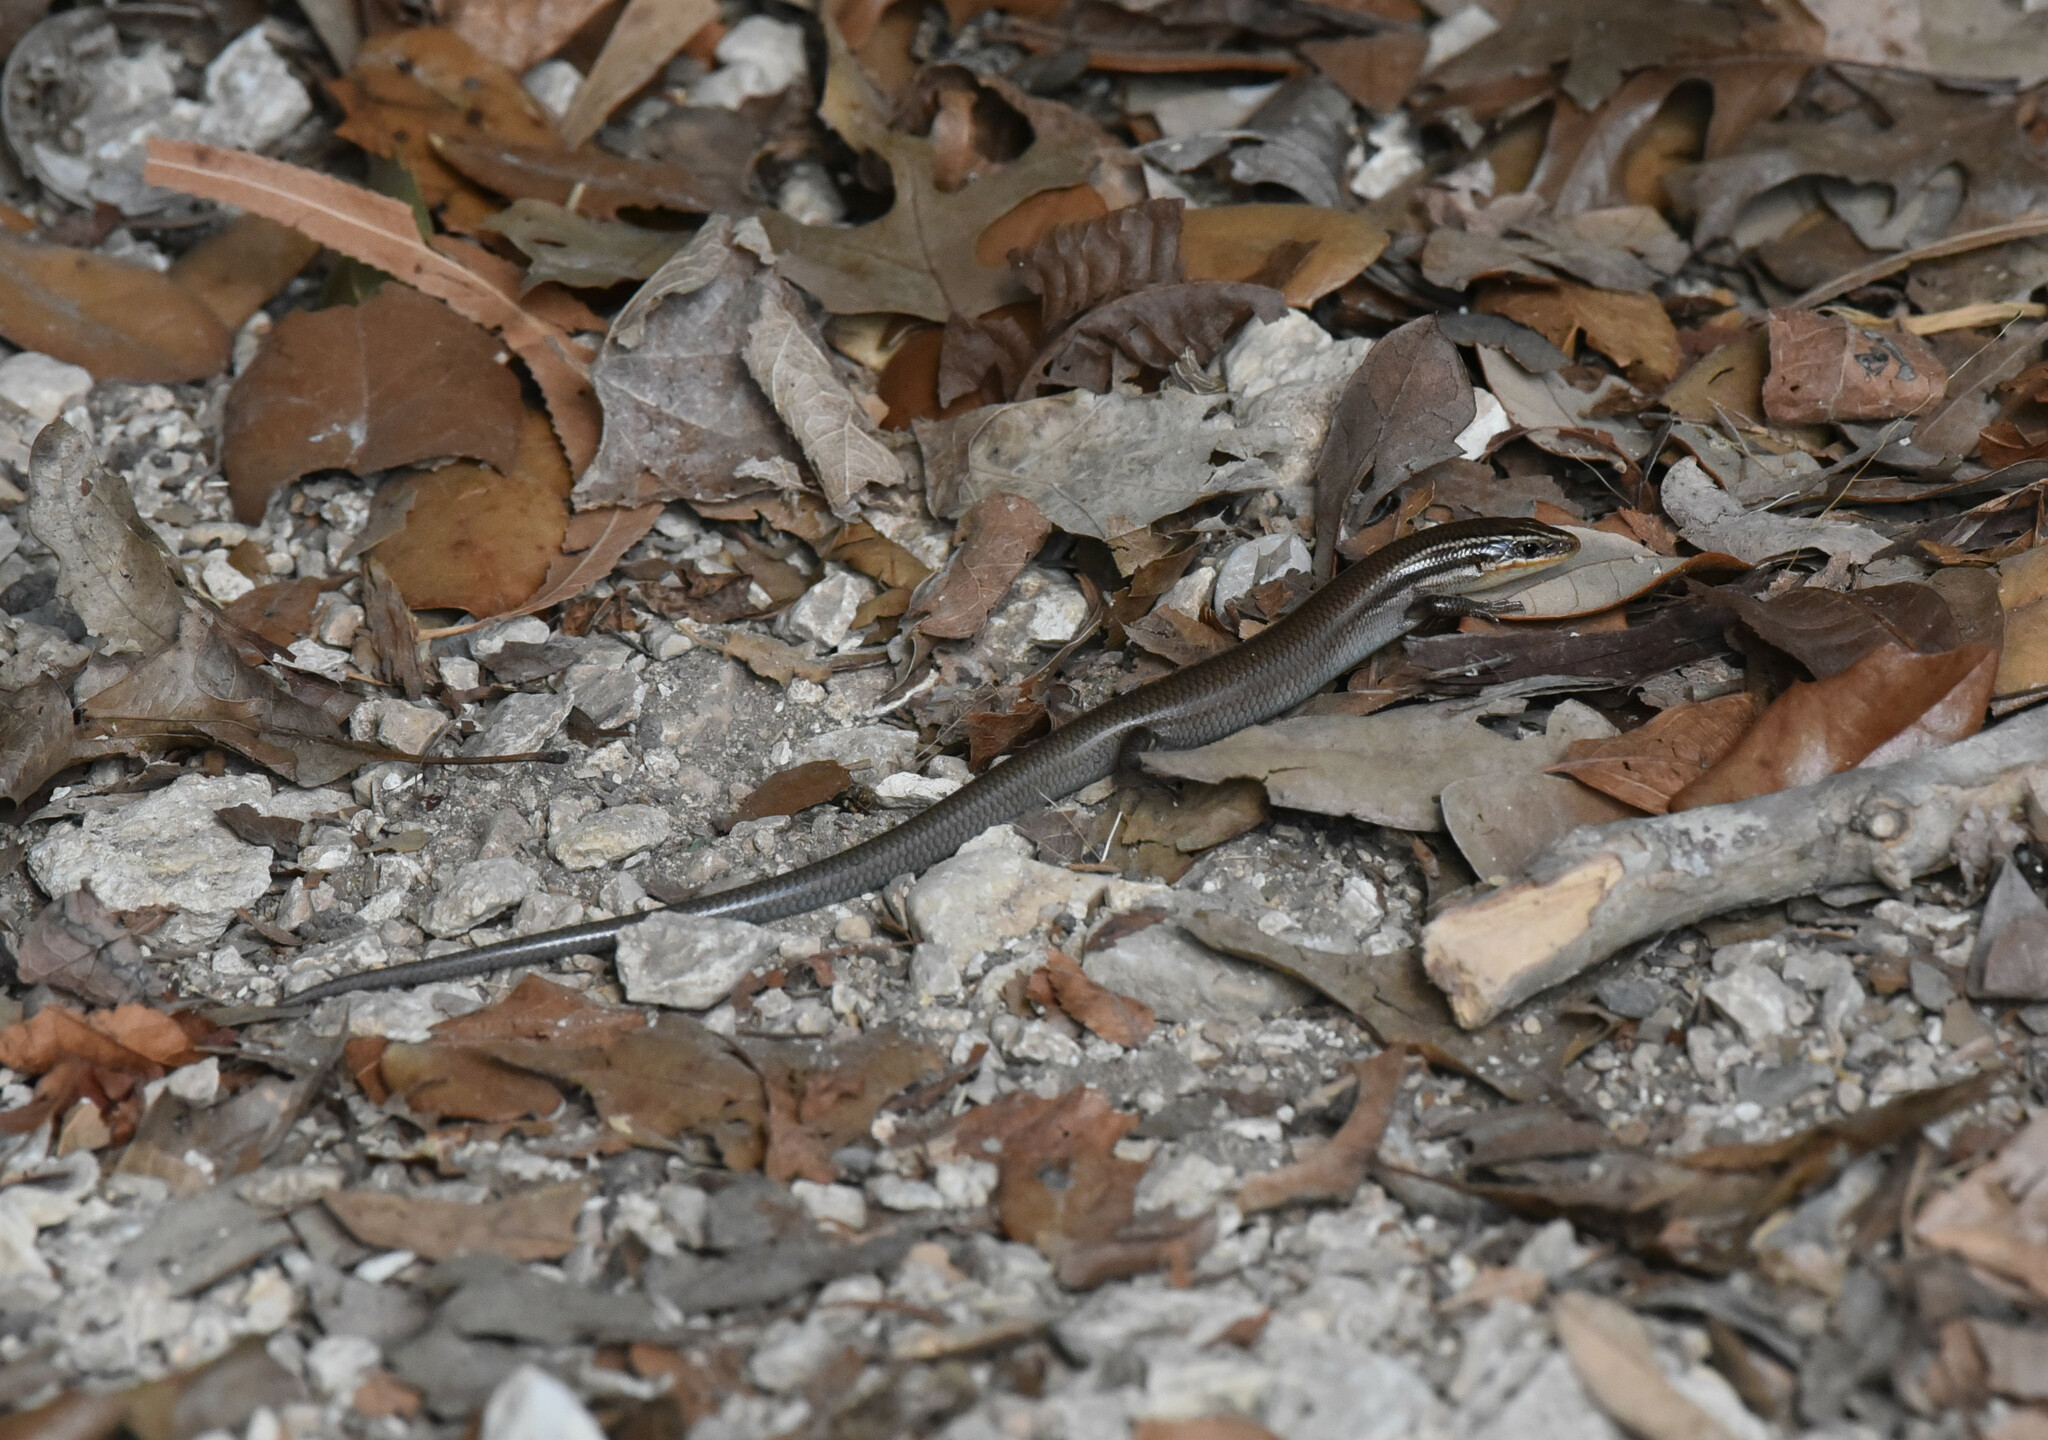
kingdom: Animalia
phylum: Chordata
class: Squamata
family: Scincidae
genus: Plestiodon
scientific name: Plestiodon tetragrammus
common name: Four-lined skink
